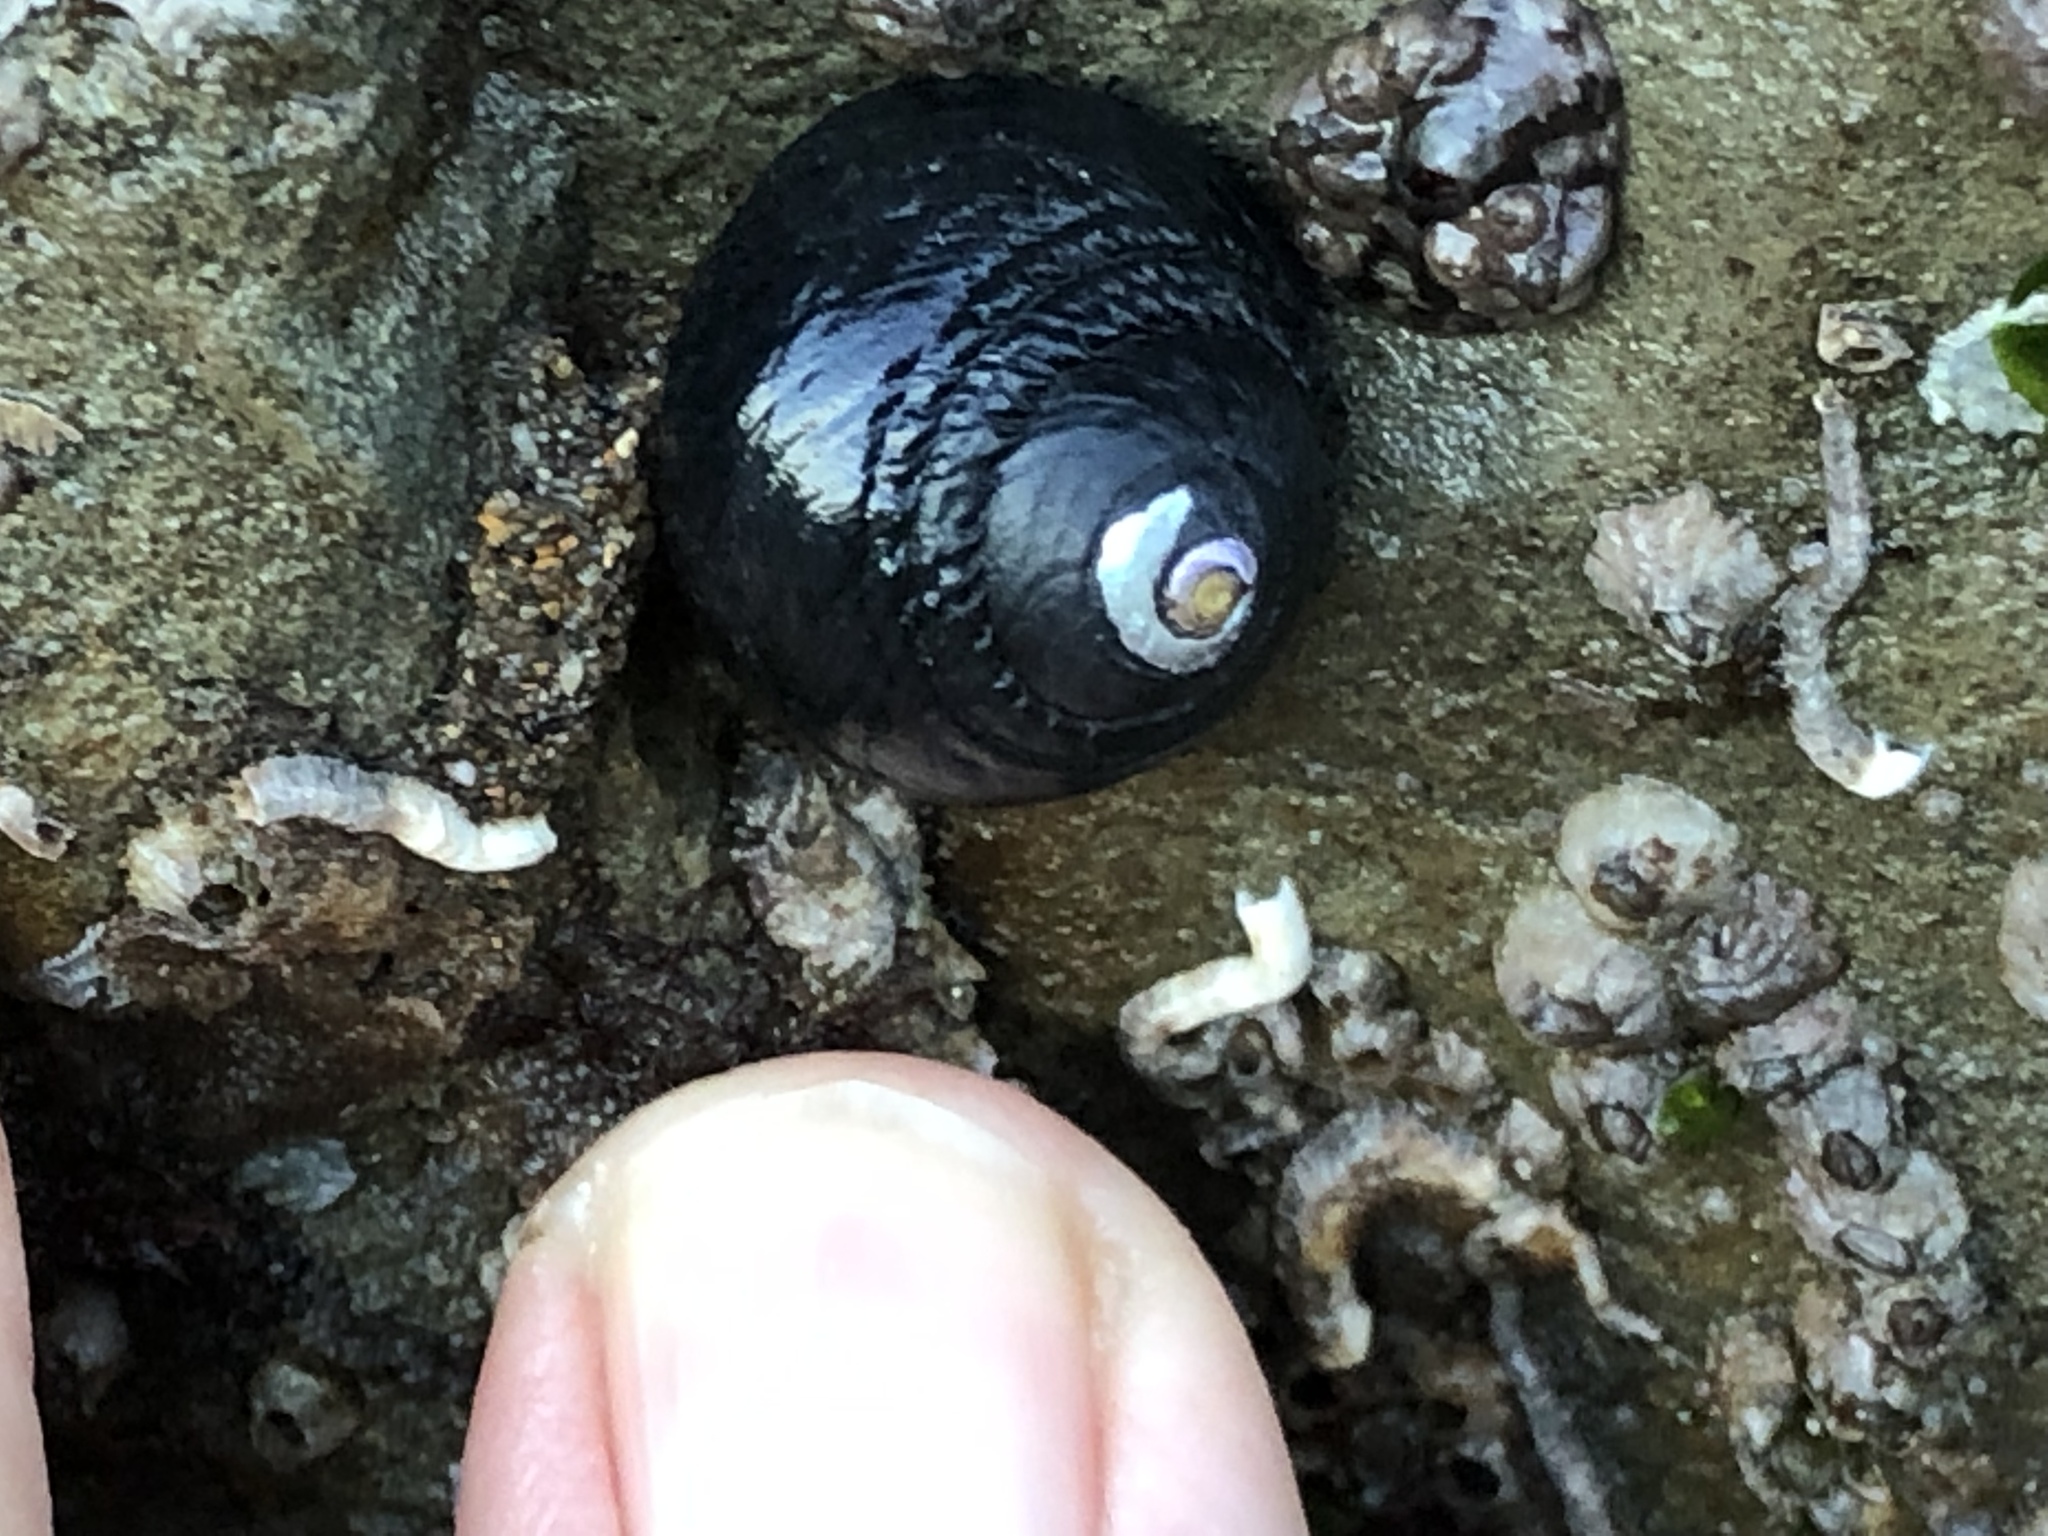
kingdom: Animalia
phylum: Mollusca
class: Gastropoda
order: Trochida
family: Tegulidae
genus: Tegula
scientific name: Tegula funebralis
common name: Black tegula
